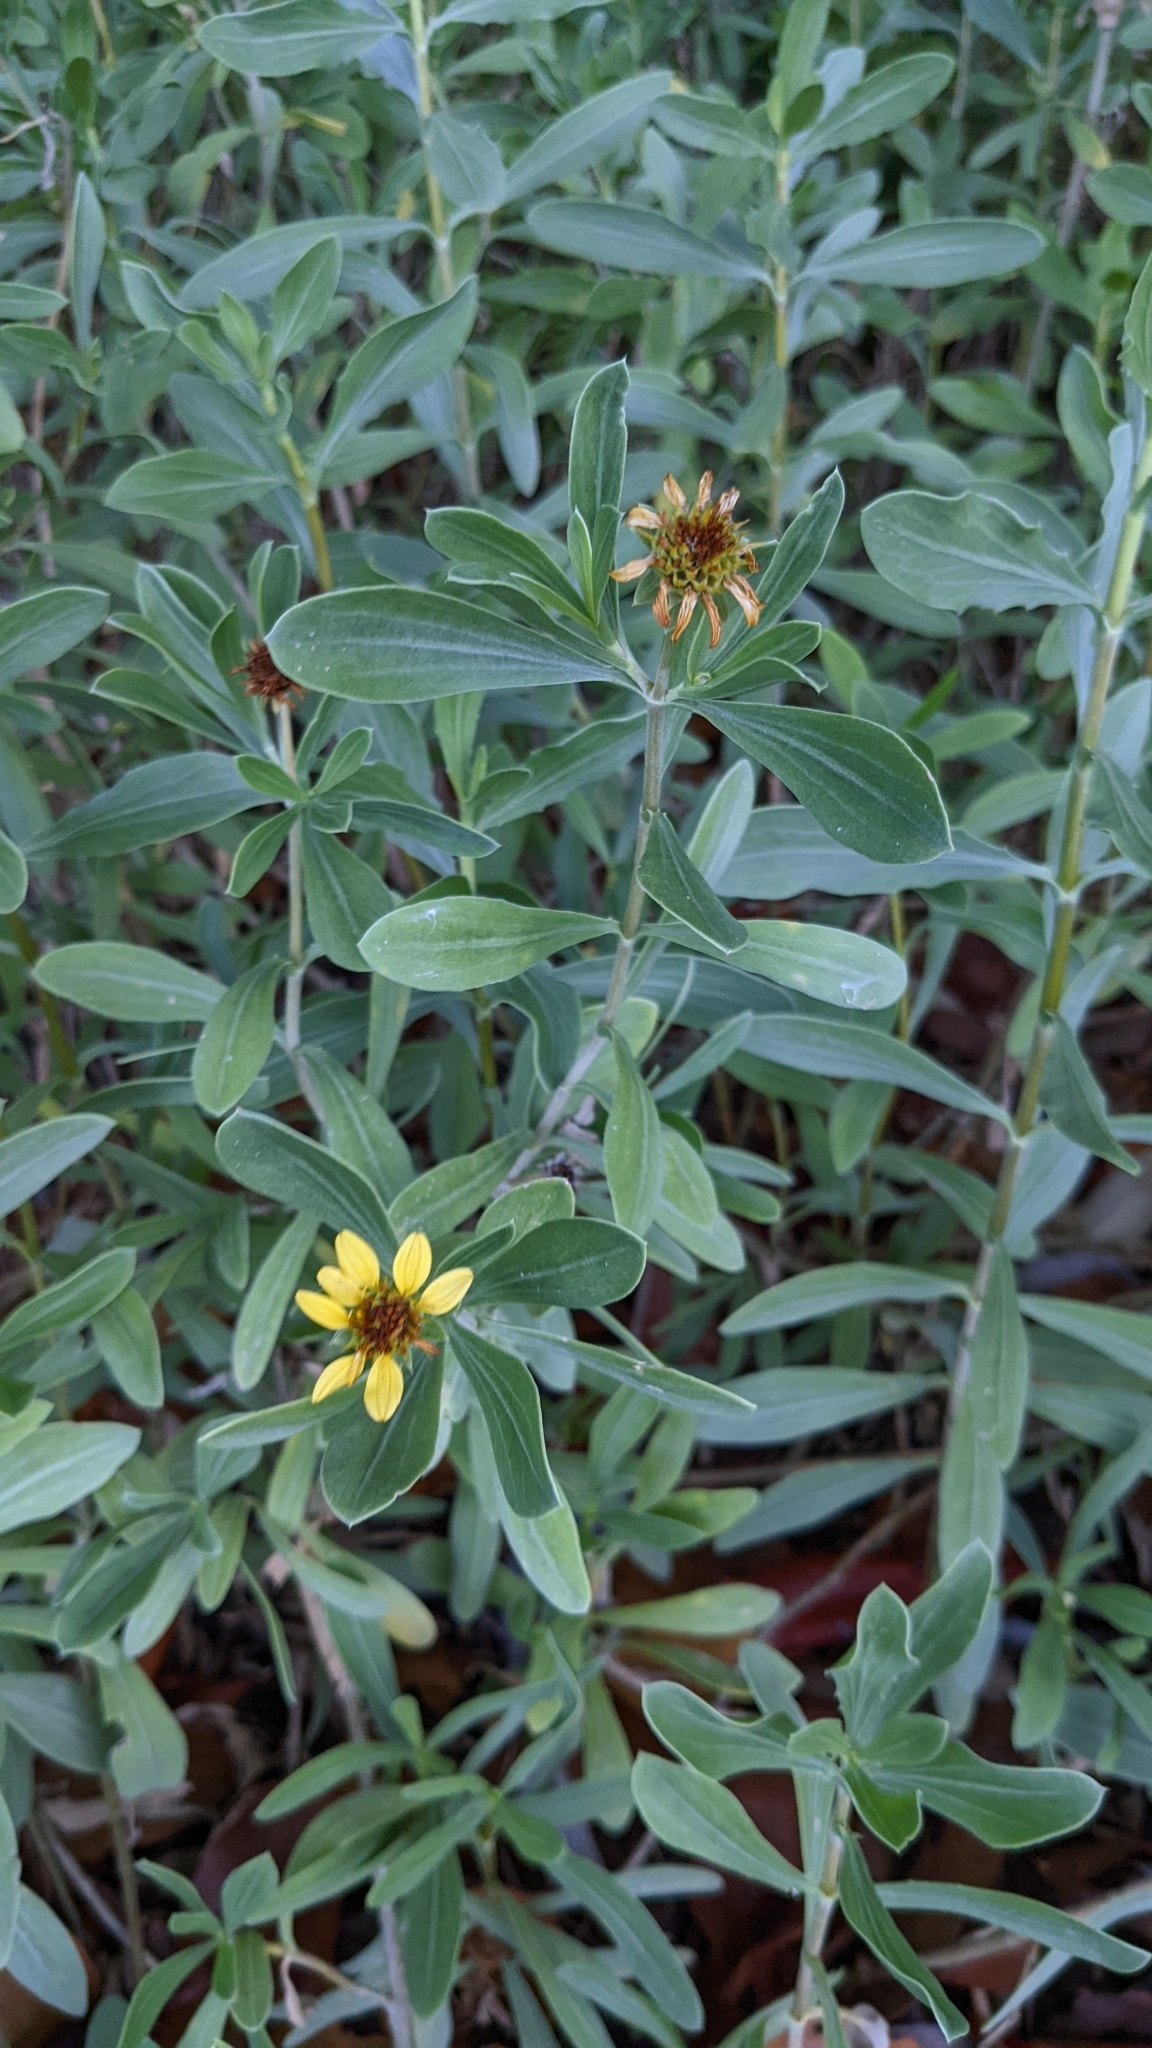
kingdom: Plantae
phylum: Tracheophyta
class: Magnoliopsida
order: Asterales
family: Asteraceae
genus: Borrichia
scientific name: Borrichia frutescens
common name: Sea oxeye
